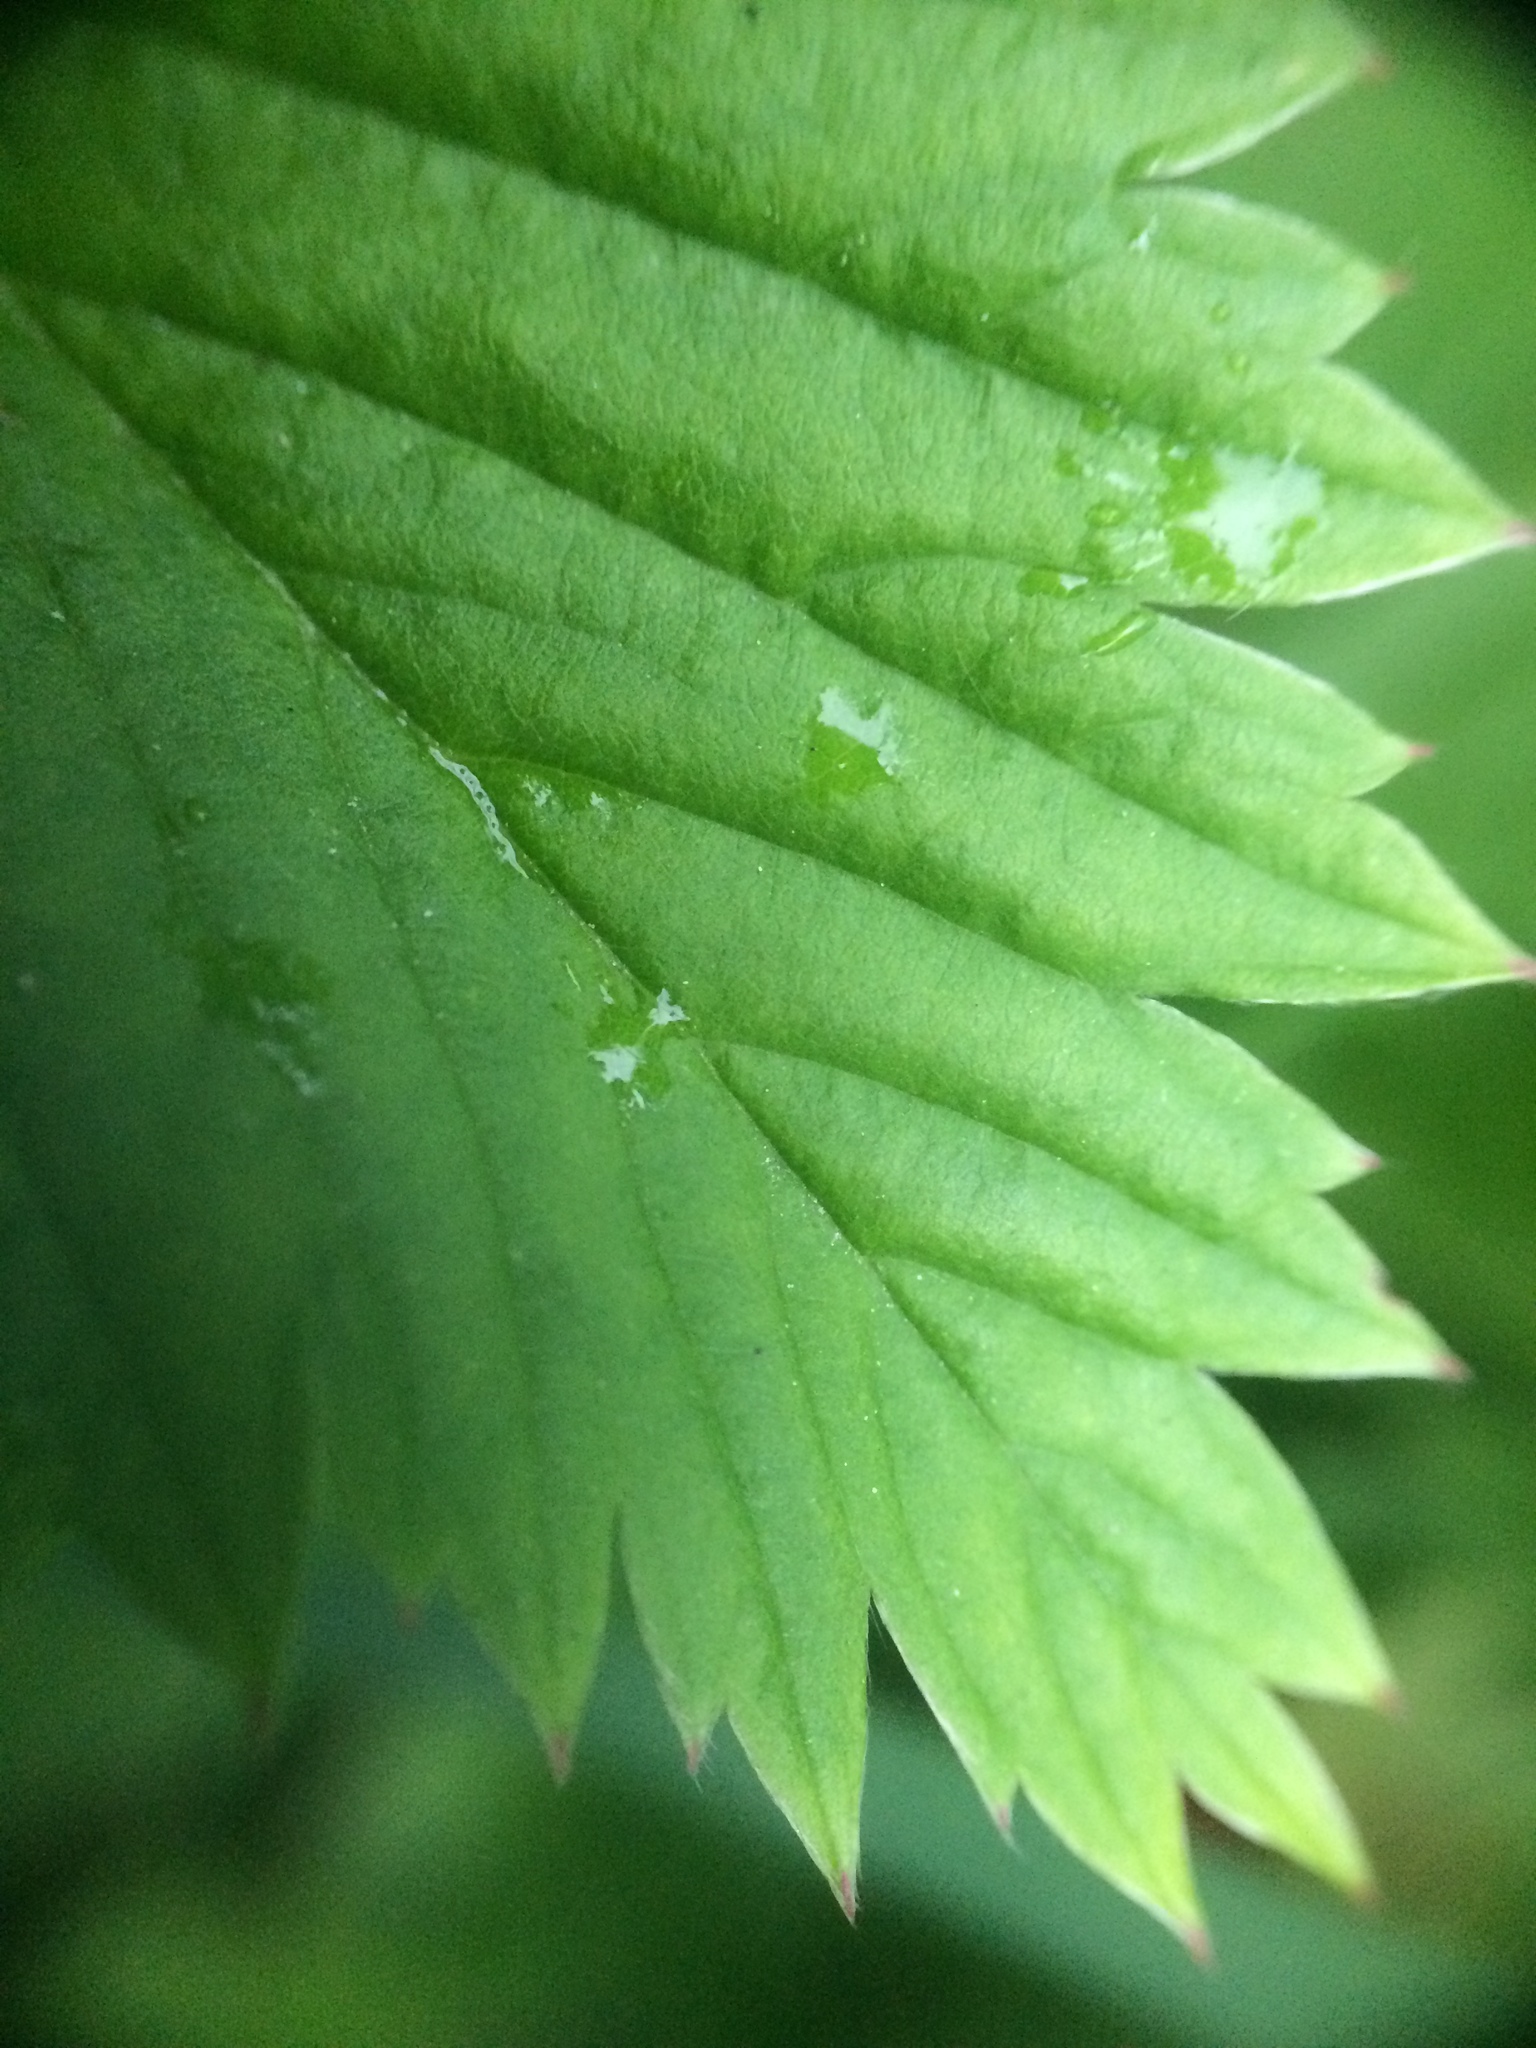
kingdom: Plantae
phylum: Tracheophyta
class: Magnoliopsida
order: Rosales
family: Rosaceae
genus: Fragaria
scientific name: Fragaria vesca
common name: Wild strawberry
